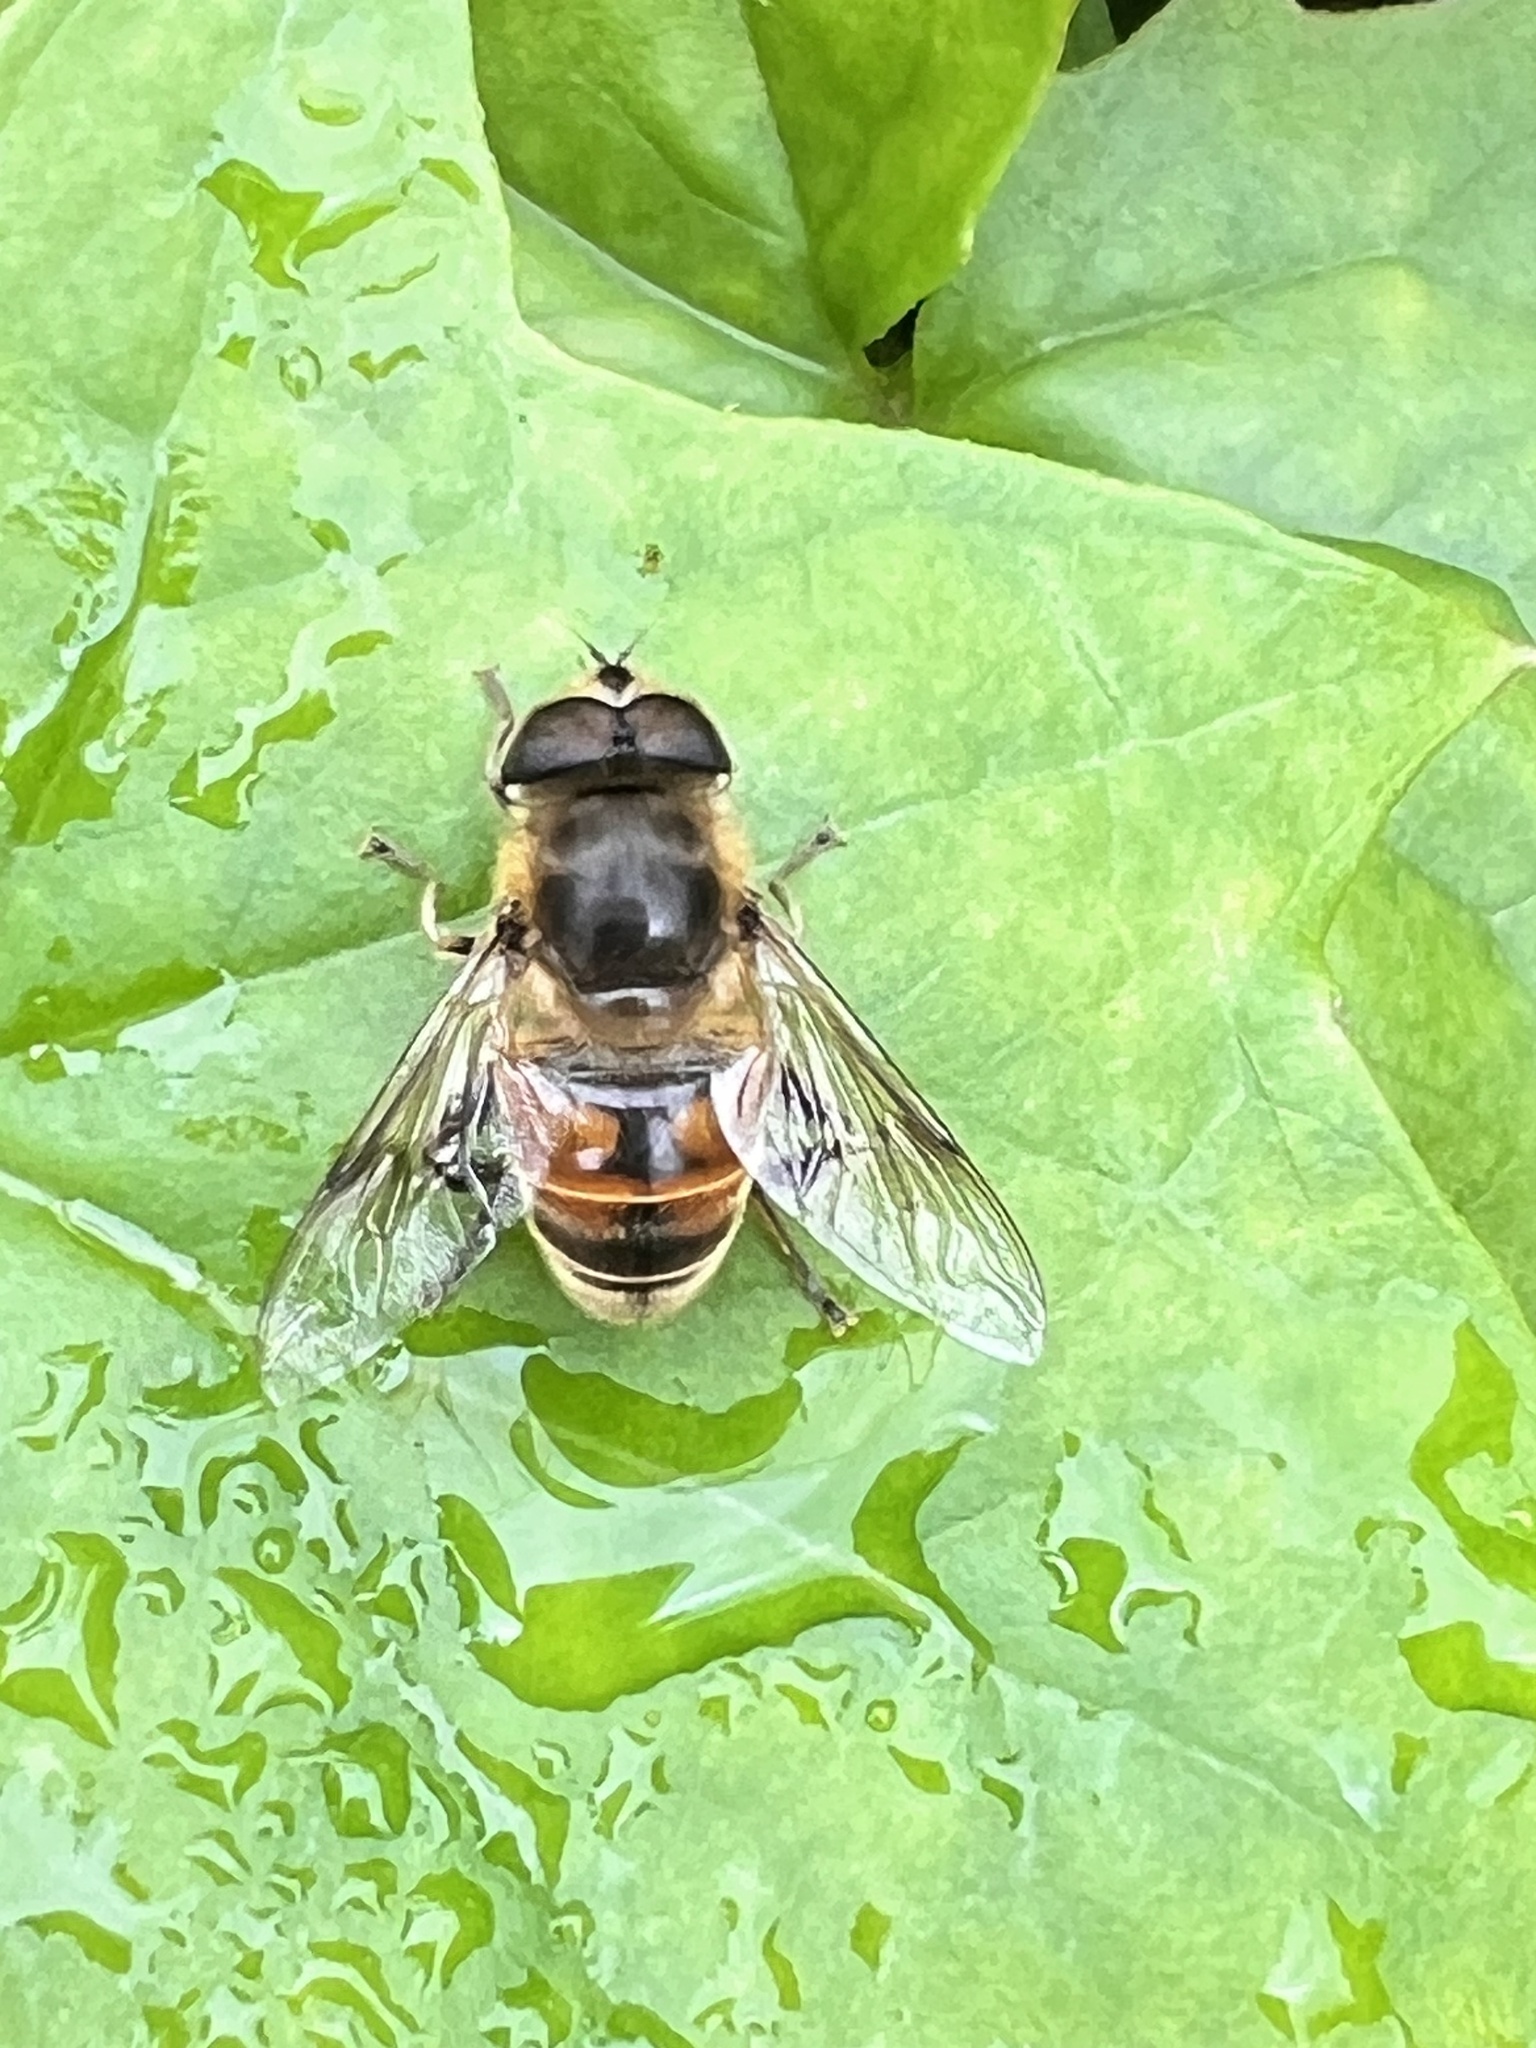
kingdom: Animalia
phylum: Arthropoda
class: Insecta
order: Diptera
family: Syrphidae
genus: Eristalis
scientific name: Eristalis tenax
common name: Drone fly
